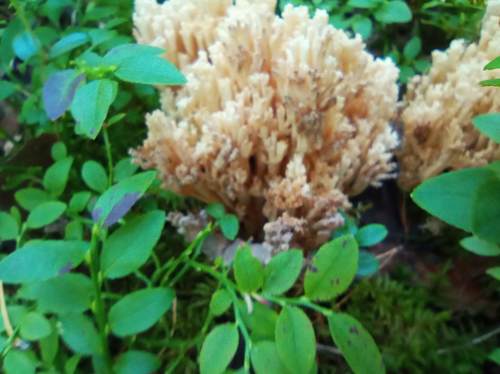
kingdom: Fungi
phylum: Basidiomycota
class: Agaricomycetes
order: Gomphales
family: Gomphaceae
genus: Ramaria
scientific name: Ramaria
